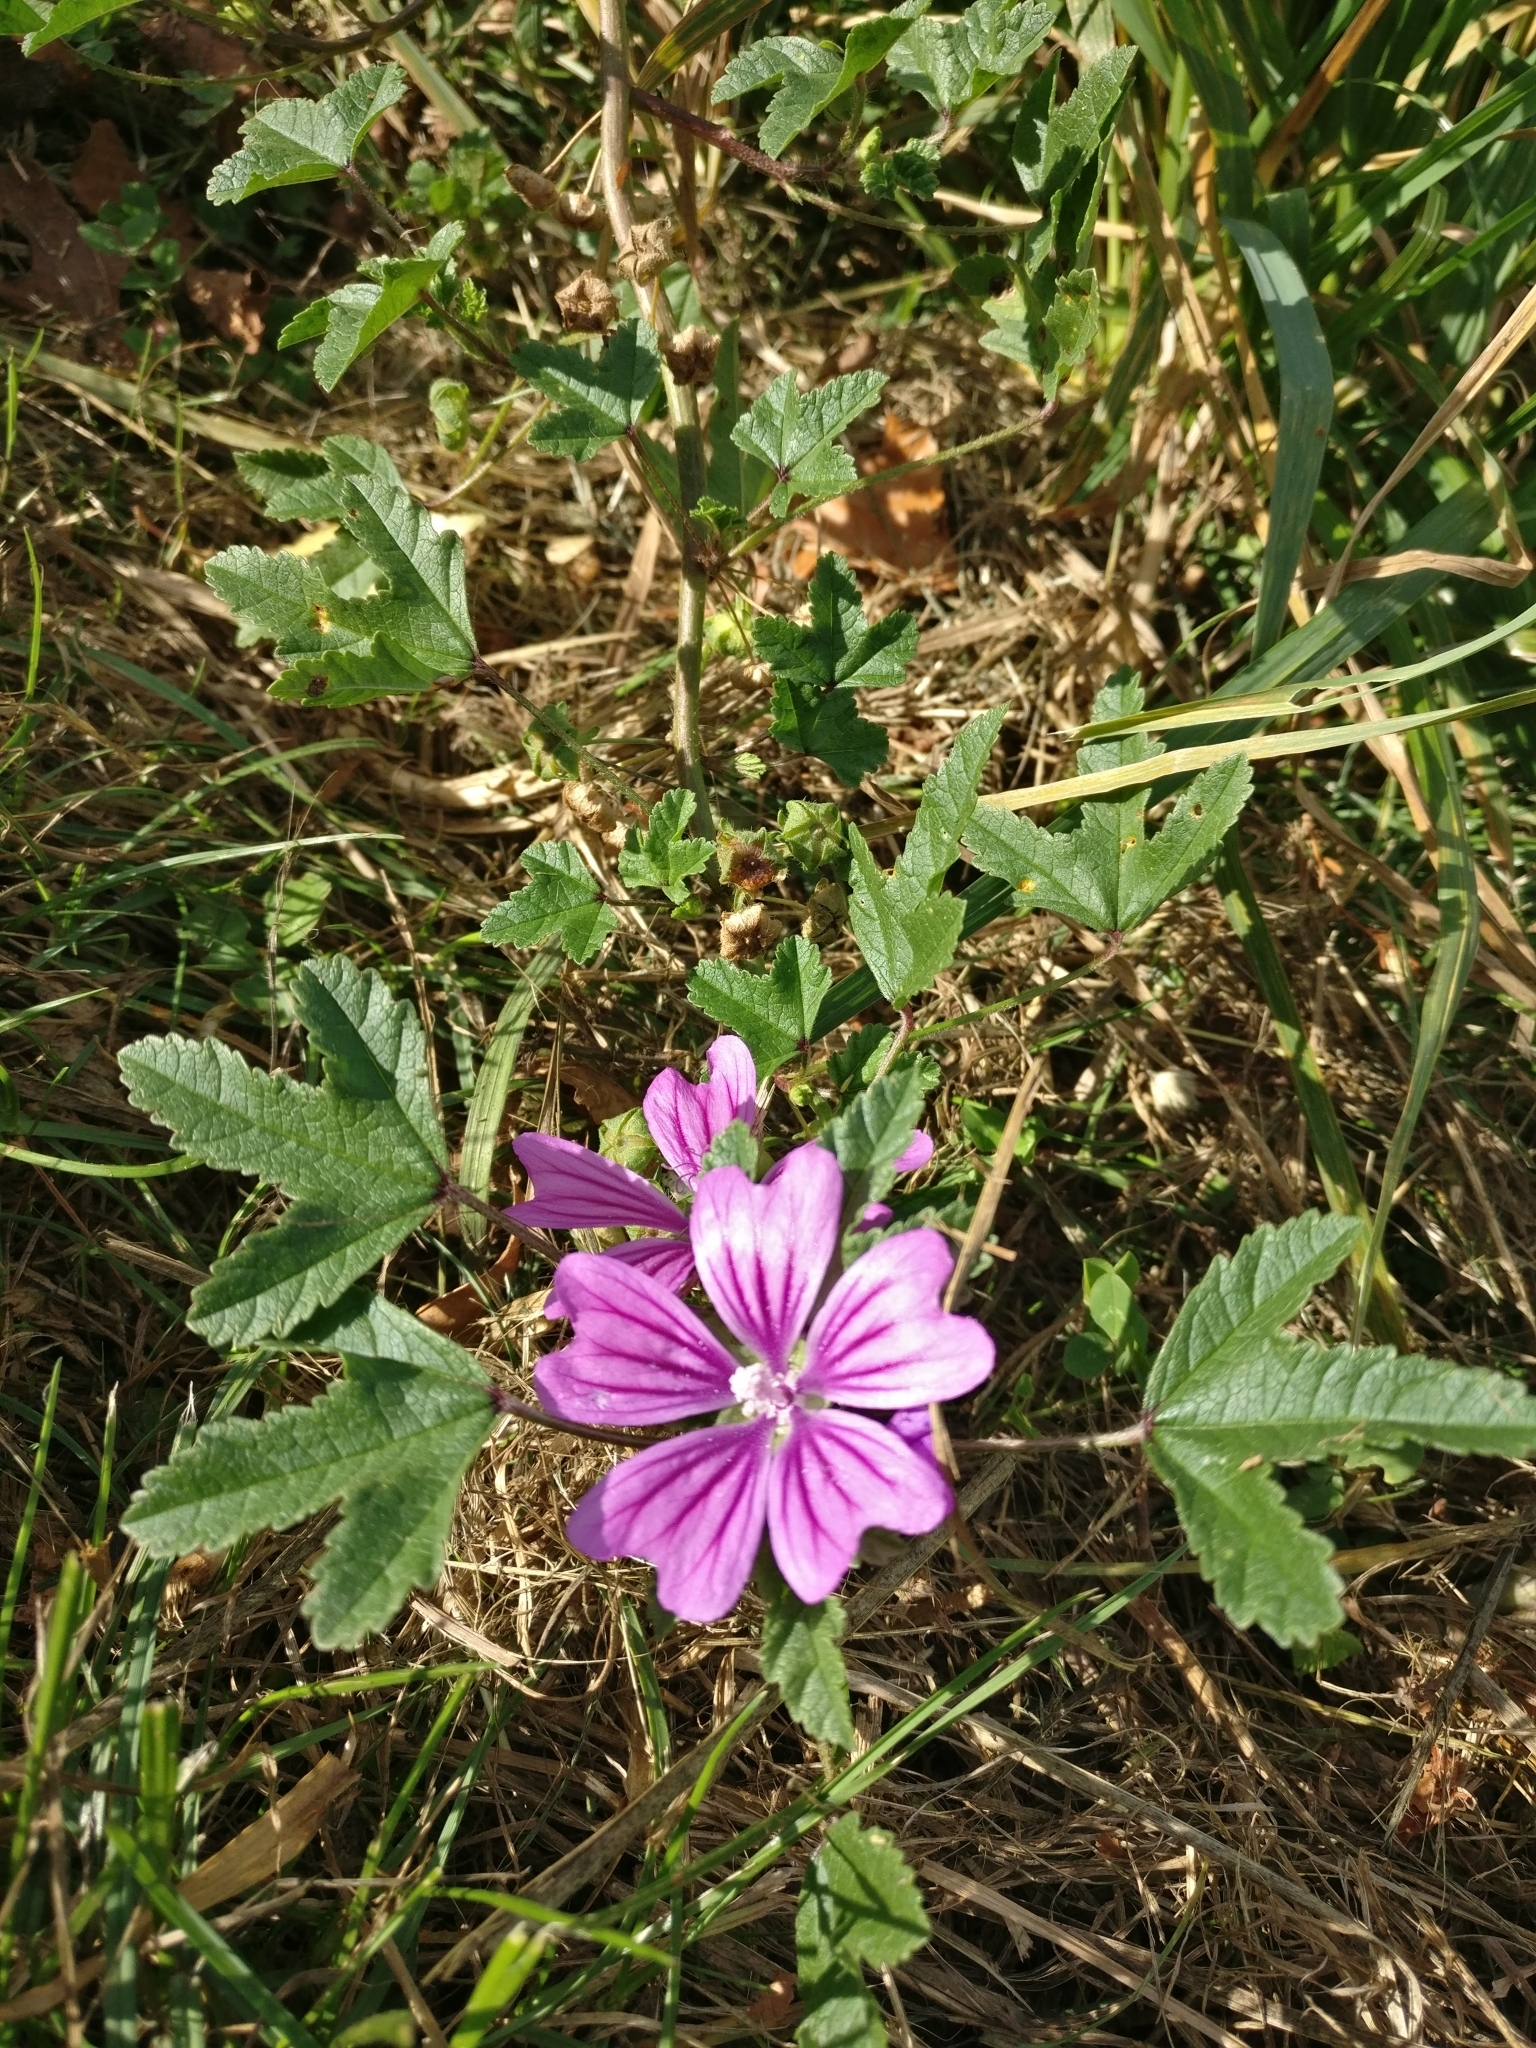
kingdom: Plantae
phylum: Tracheophyta
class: Magnoliopsida
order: Malvales
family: Malvaceae
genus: Malva
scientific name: Malva sylvestris
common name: Common mallow
